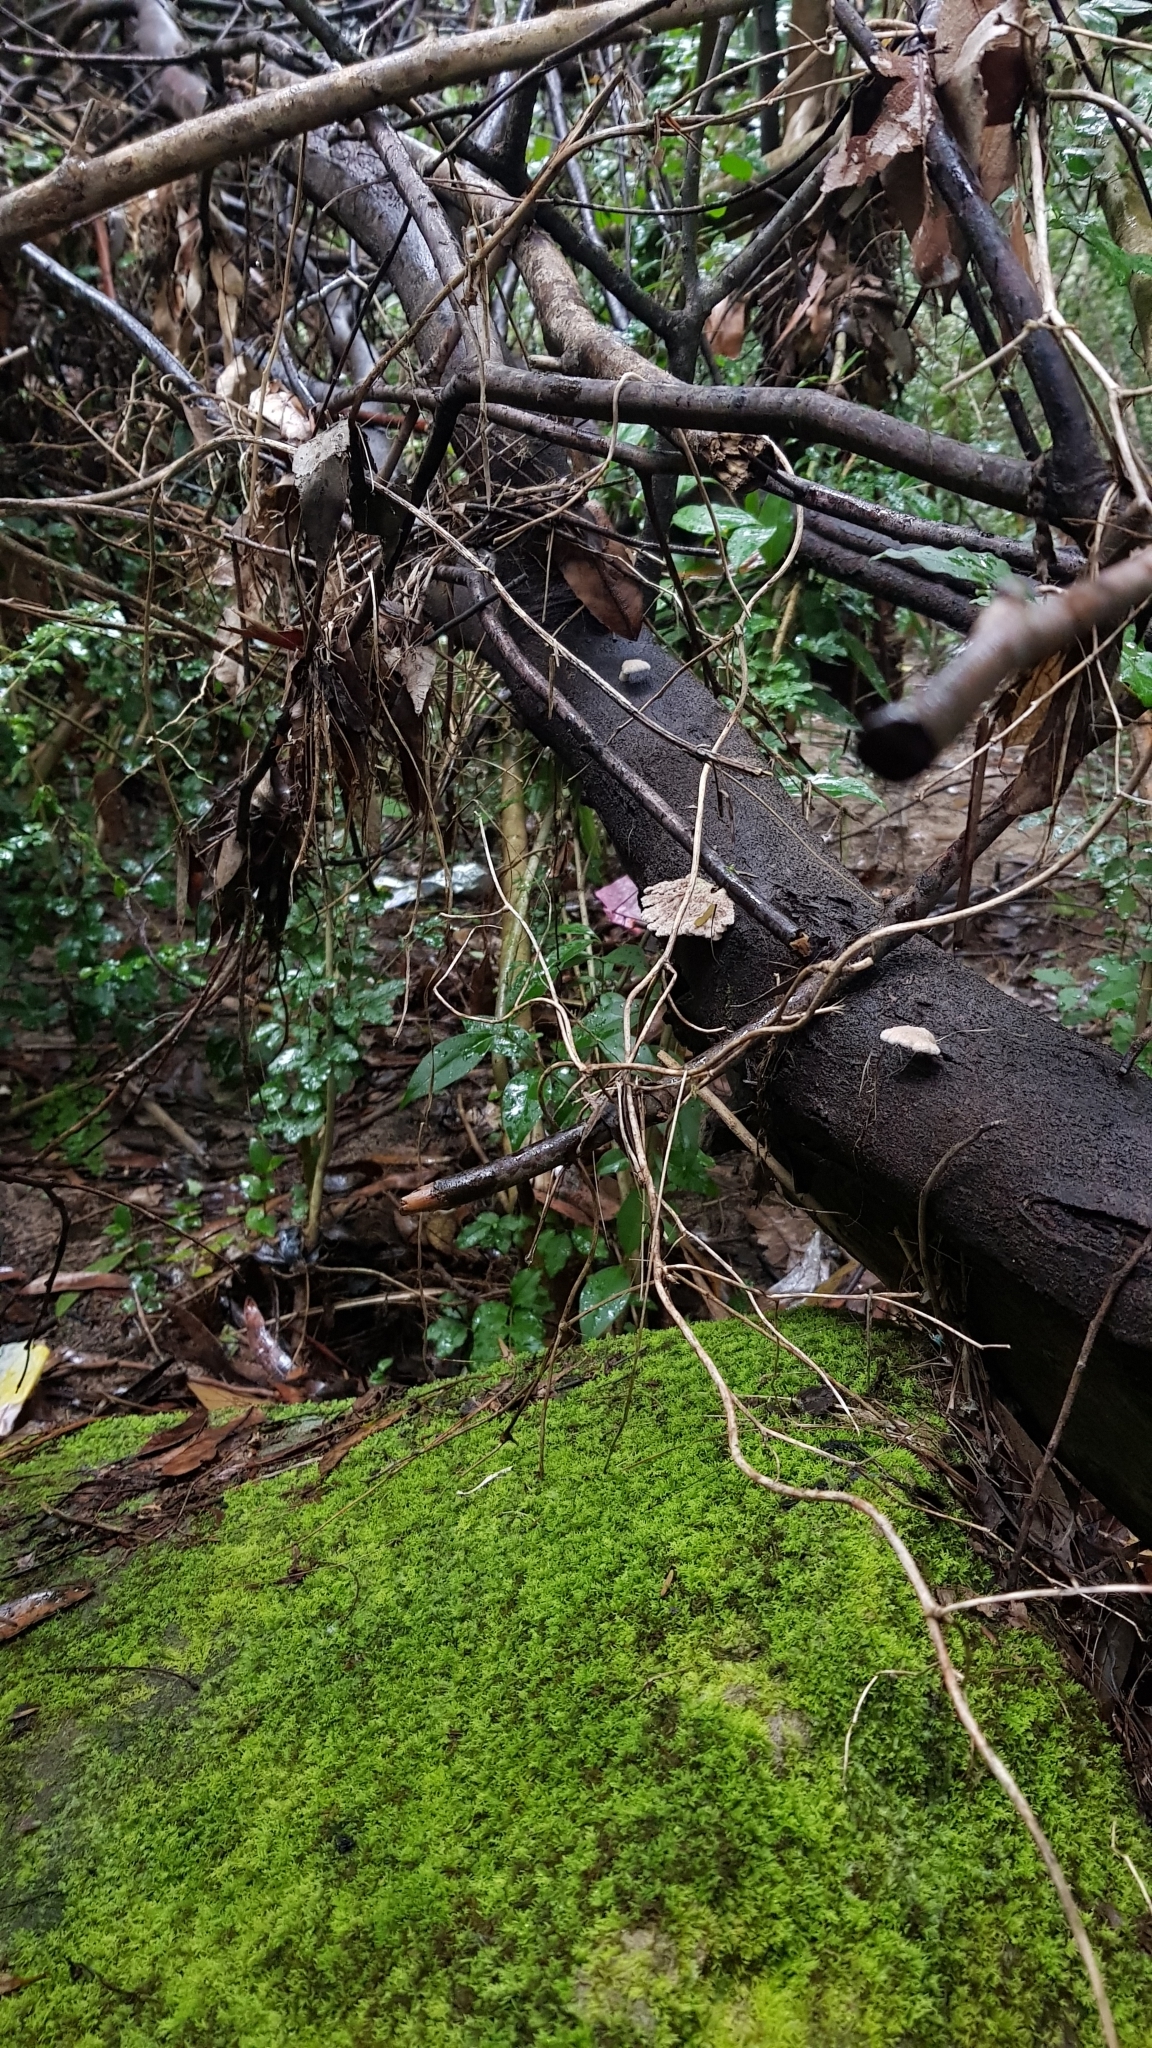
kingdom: Fungi
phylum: Basidiomycota
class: Agaricomycetes
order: Agaricales
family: Schizophyllaceae
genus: Schizophyllum
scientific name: Schizophyllum commune
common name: Common porecrust
